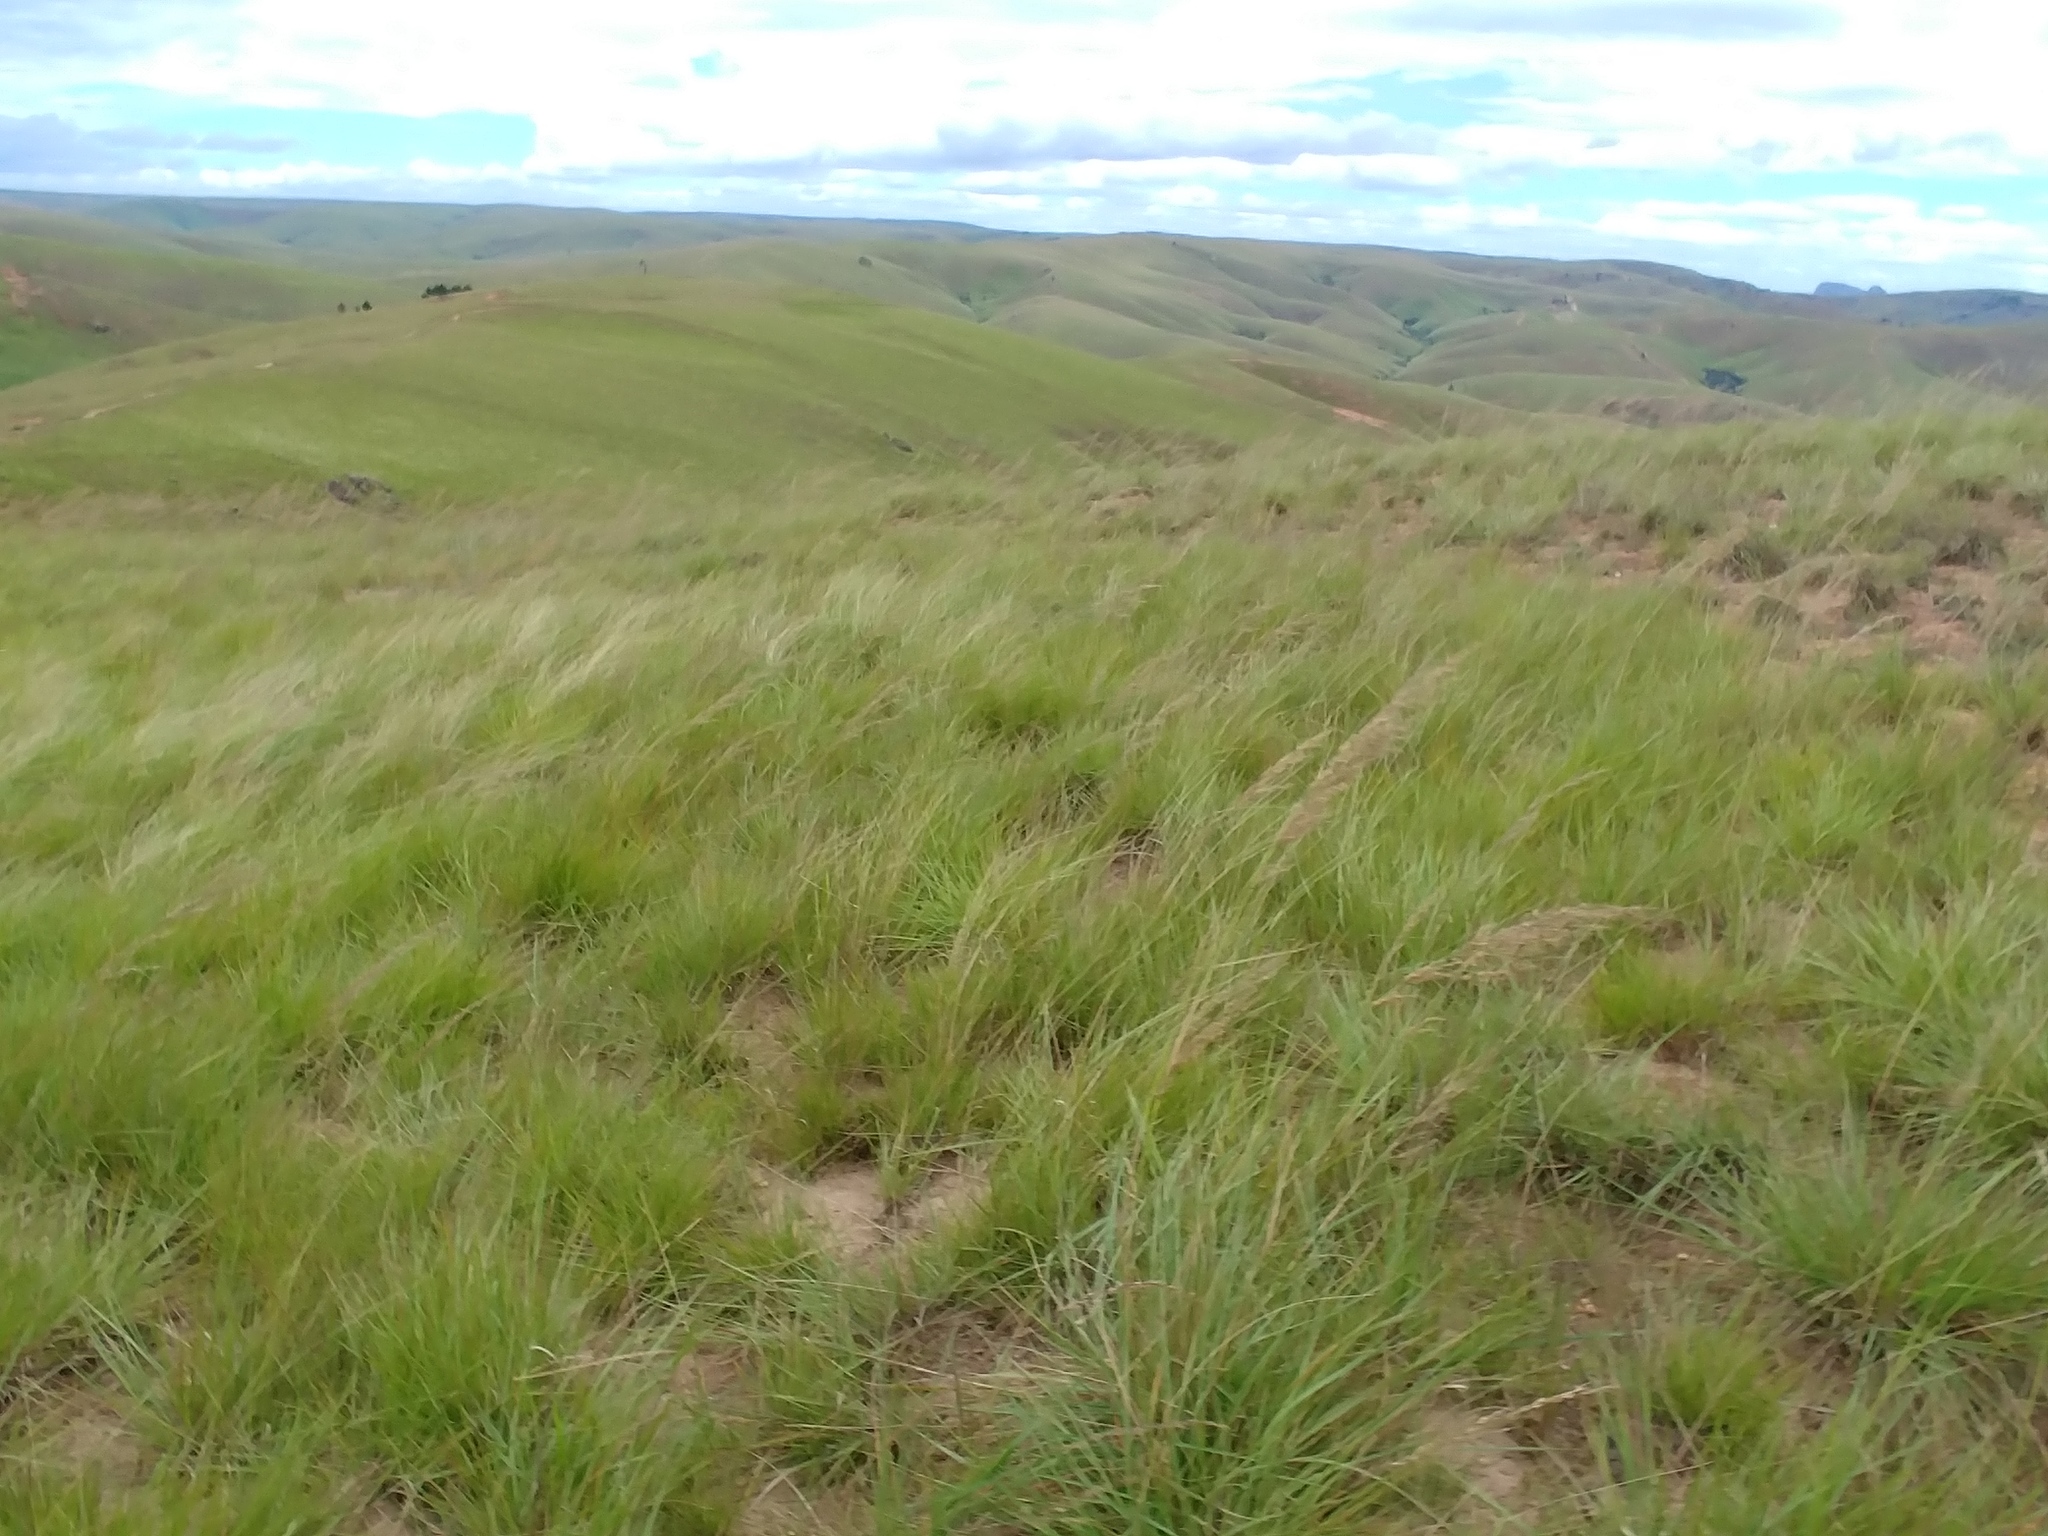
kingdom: Plantae
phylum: Tracheophyta
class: Liliopsida
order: Poales
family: Poaceae
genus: Loudetia
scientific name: Loudetia simplex
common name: Common russet grass
